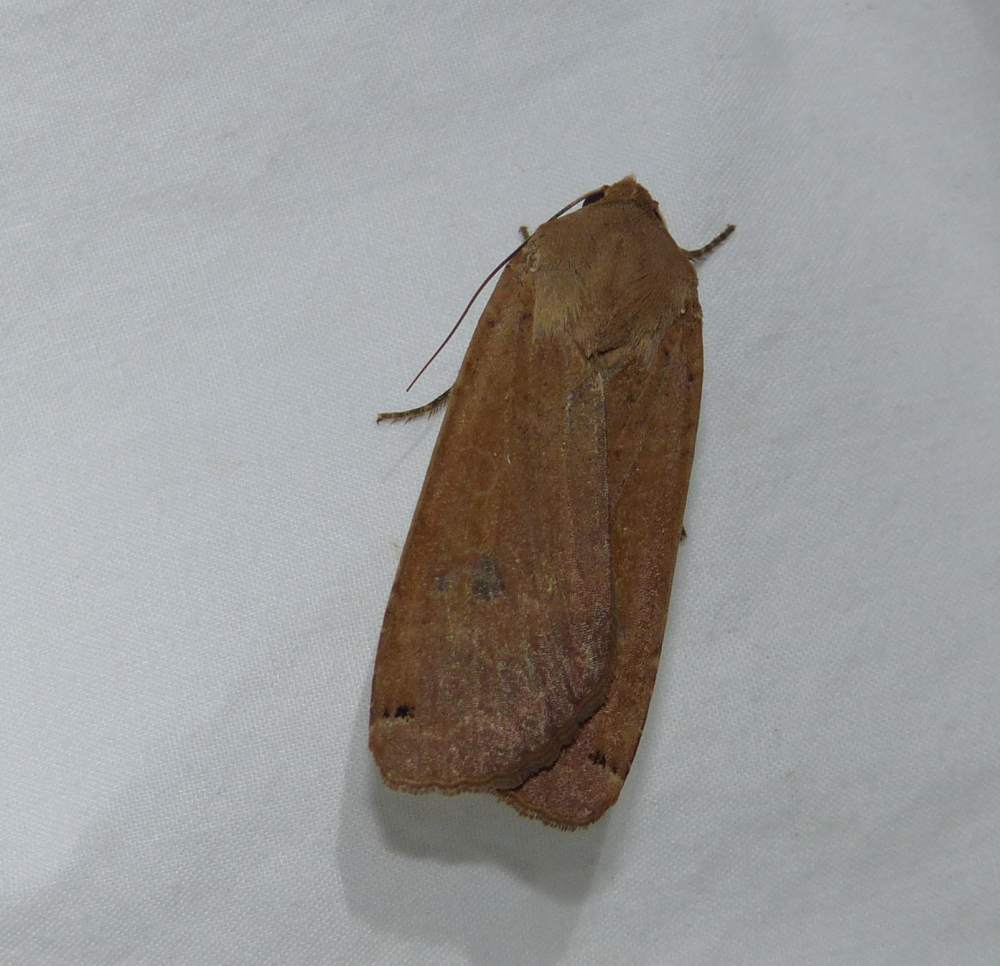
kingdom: Animalia
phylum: Arthropoda
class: Insecta
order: Lepidoptera
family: Noctuidae
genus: Noctua
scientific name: Noctua pronuba
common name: Large yellow underwing
